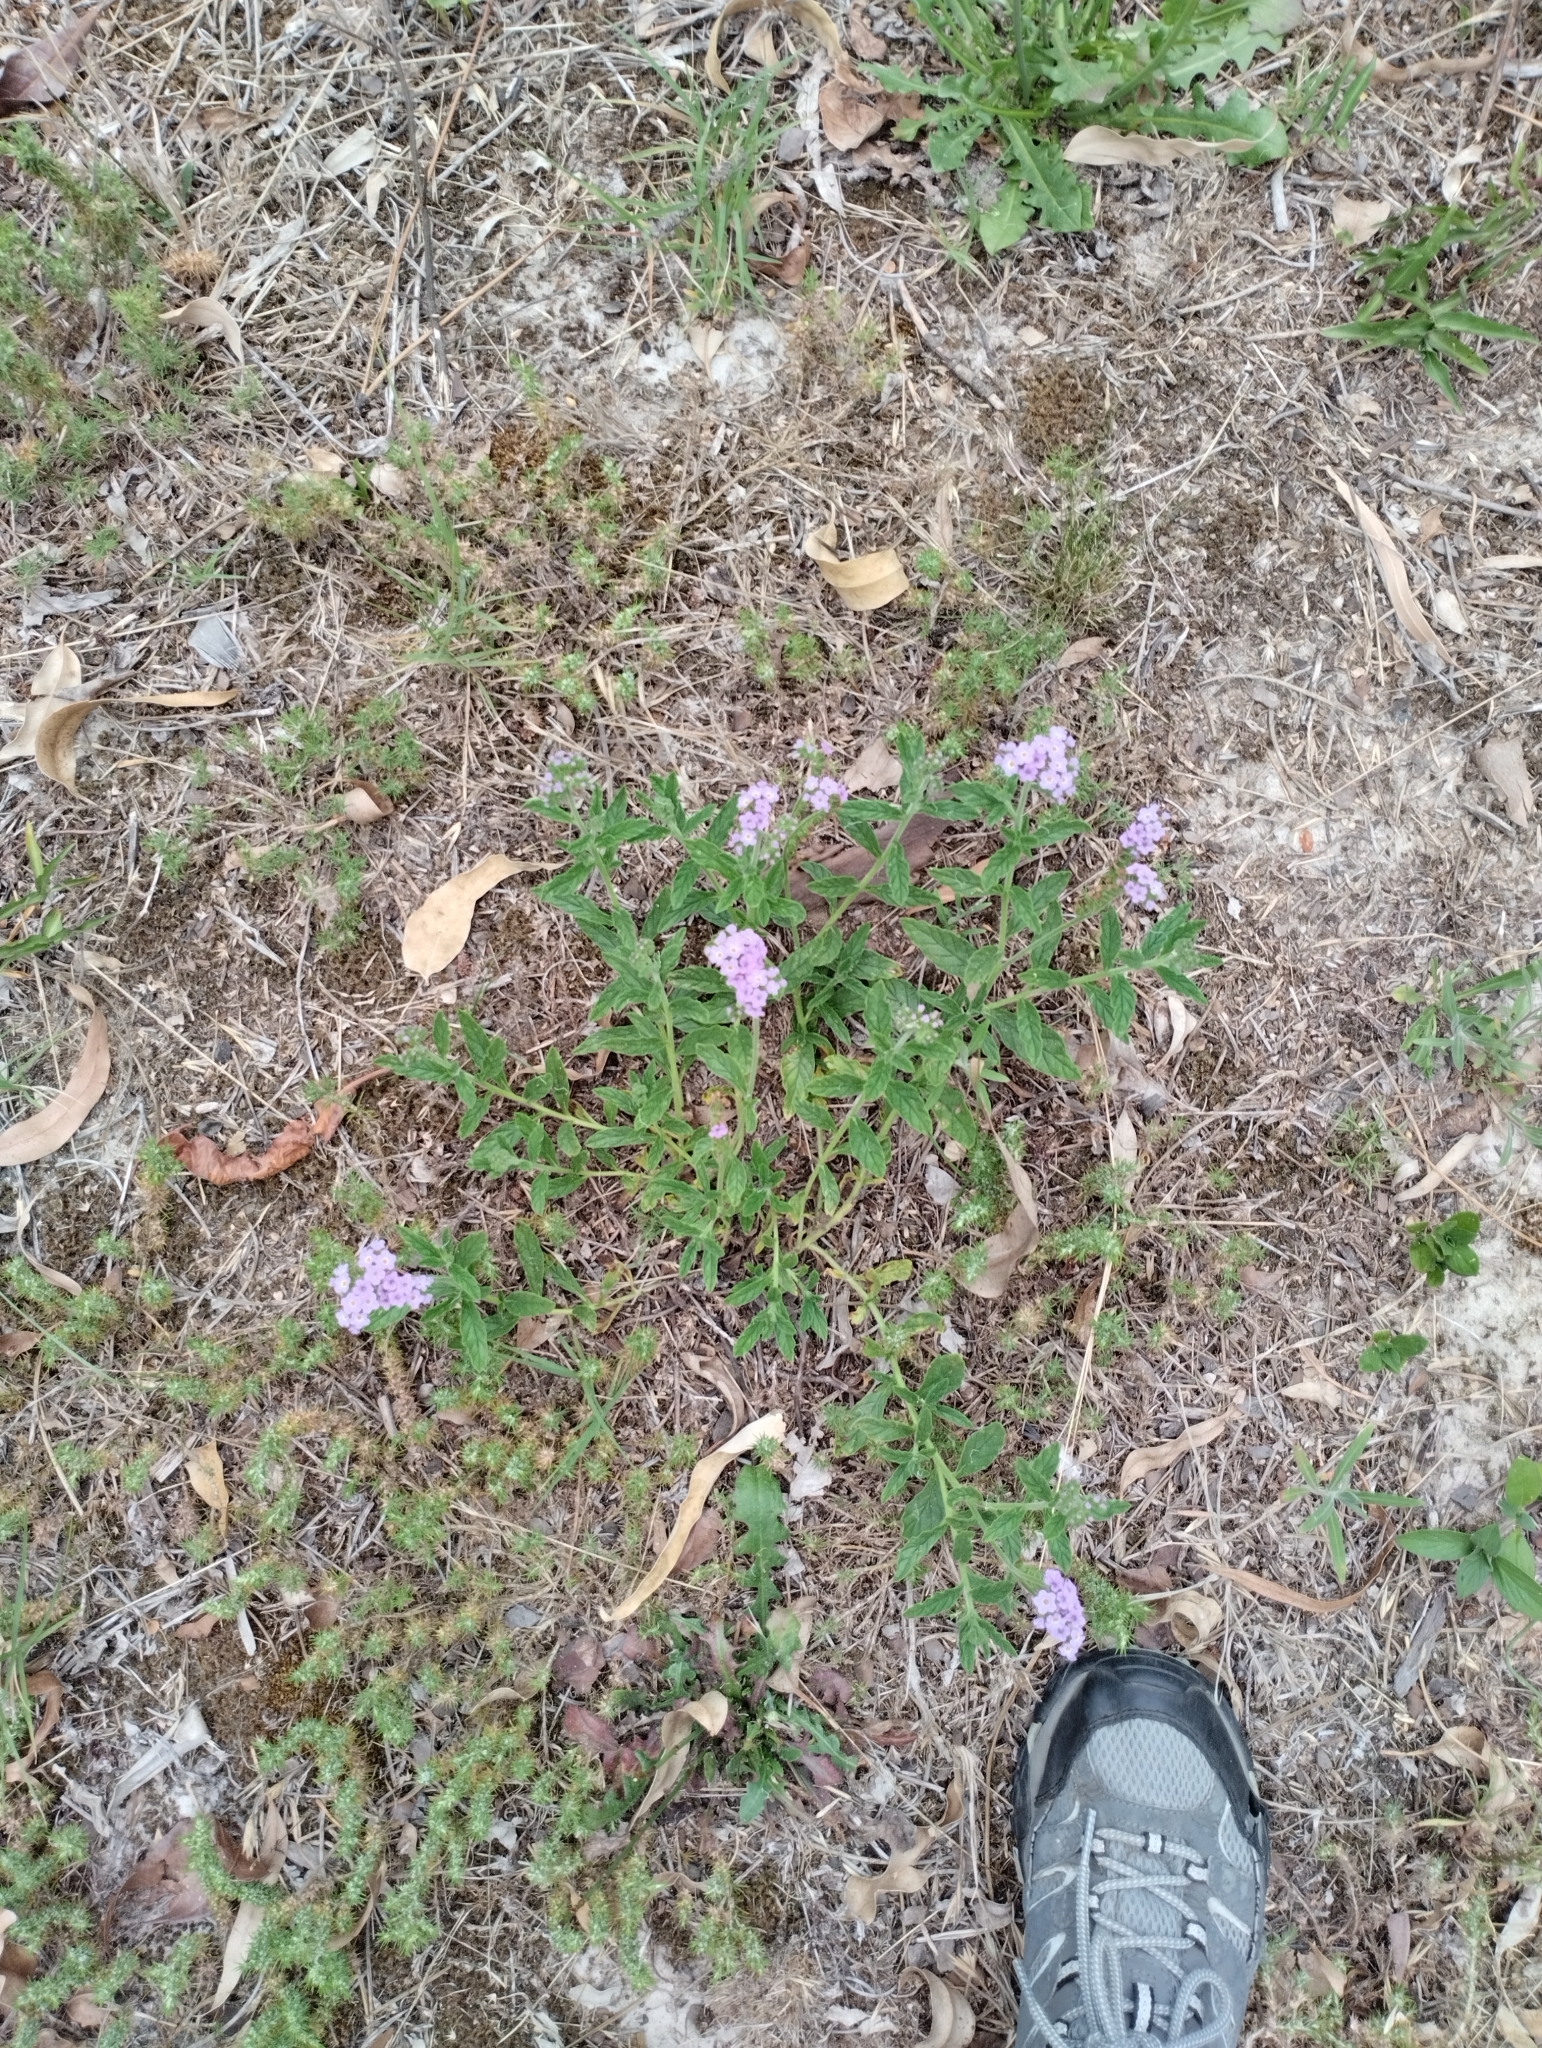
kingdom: Plantae
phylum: Tracheophyta
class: Magnoliopsida
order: Boraginales
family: Heliotropiaceae
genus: Heliotropium
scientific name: Heliotropium amplexicaule
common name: Clasping heliotrope
